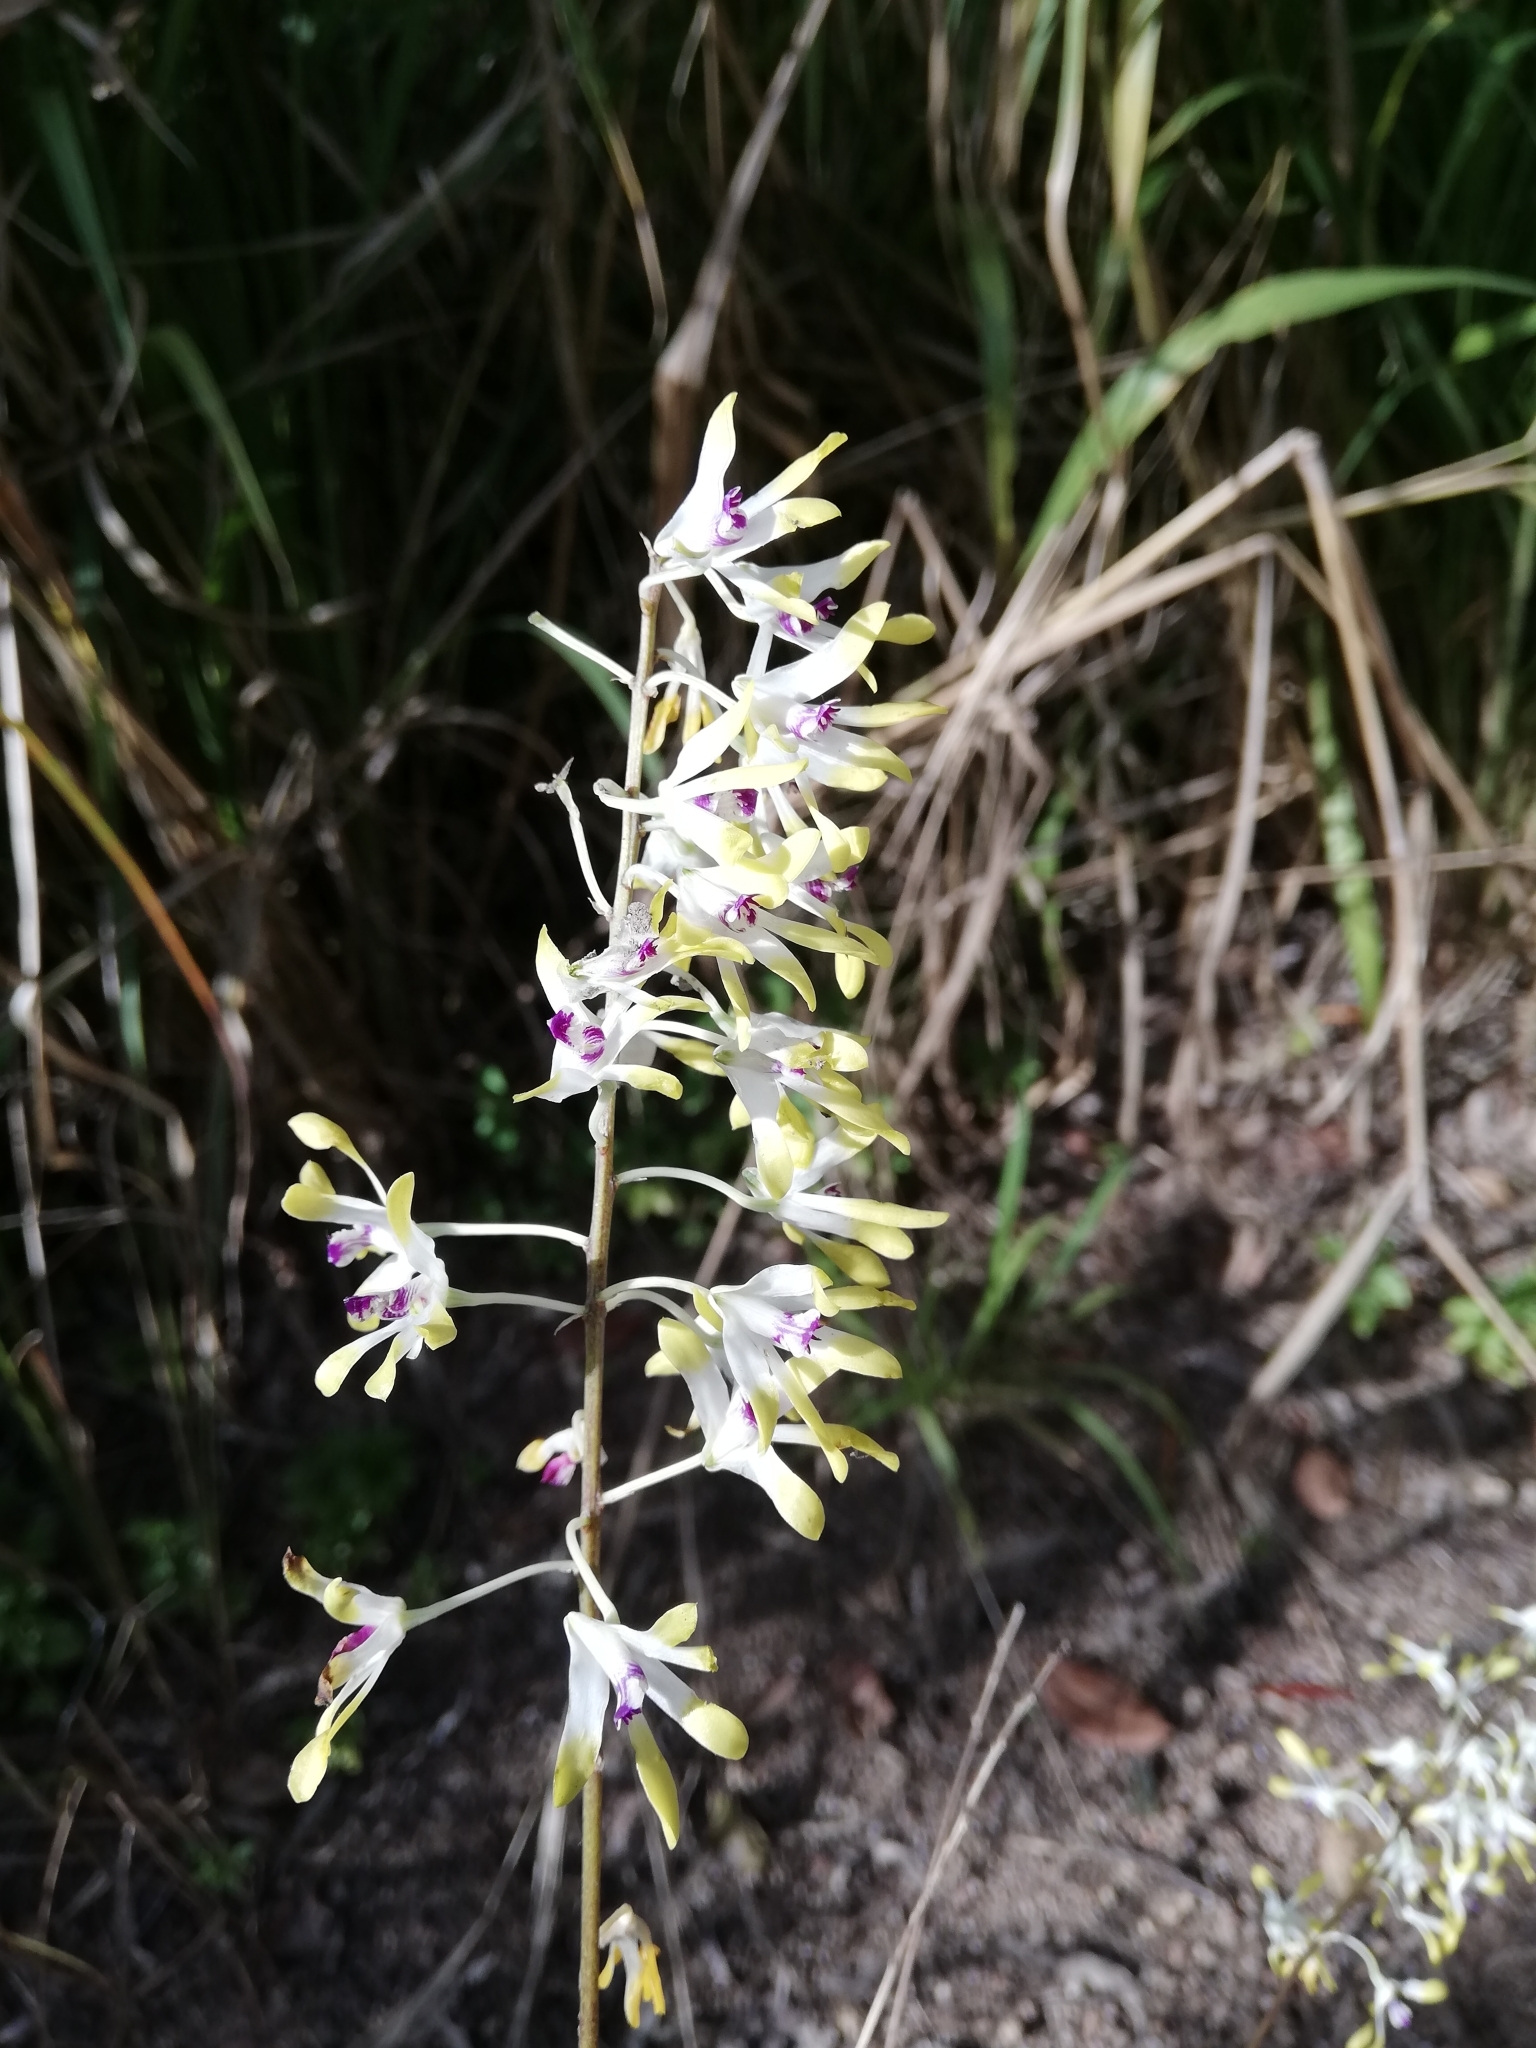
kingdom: Plantae
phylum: Tracheophyta
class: Liliopsida
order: Asparagales
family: Orchidaceae
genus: Dendrobium
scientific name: Dendrobium canaliculatum
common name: Tea tree orchid
